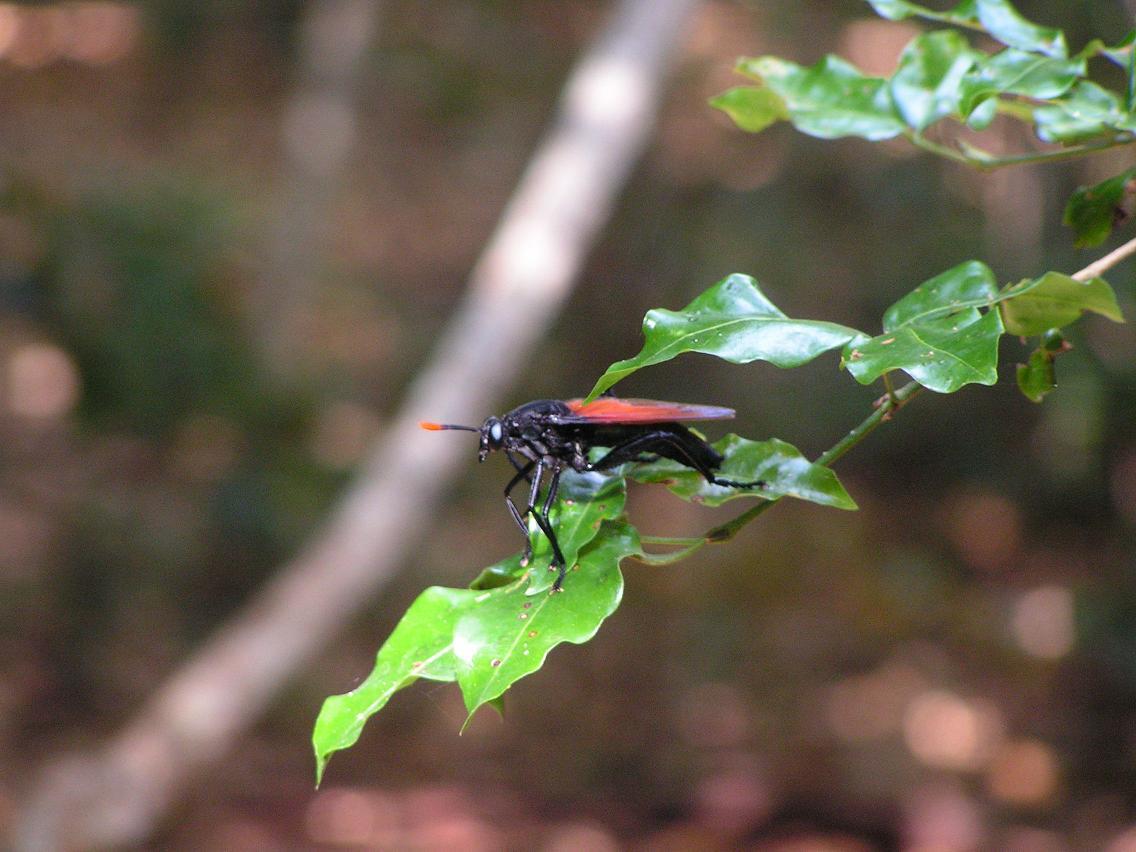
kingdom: Animalia
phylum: Arthropoda
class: Insecta
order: Diptera
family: Mydidae
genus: Mydas
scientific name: Mydas rubidapex
